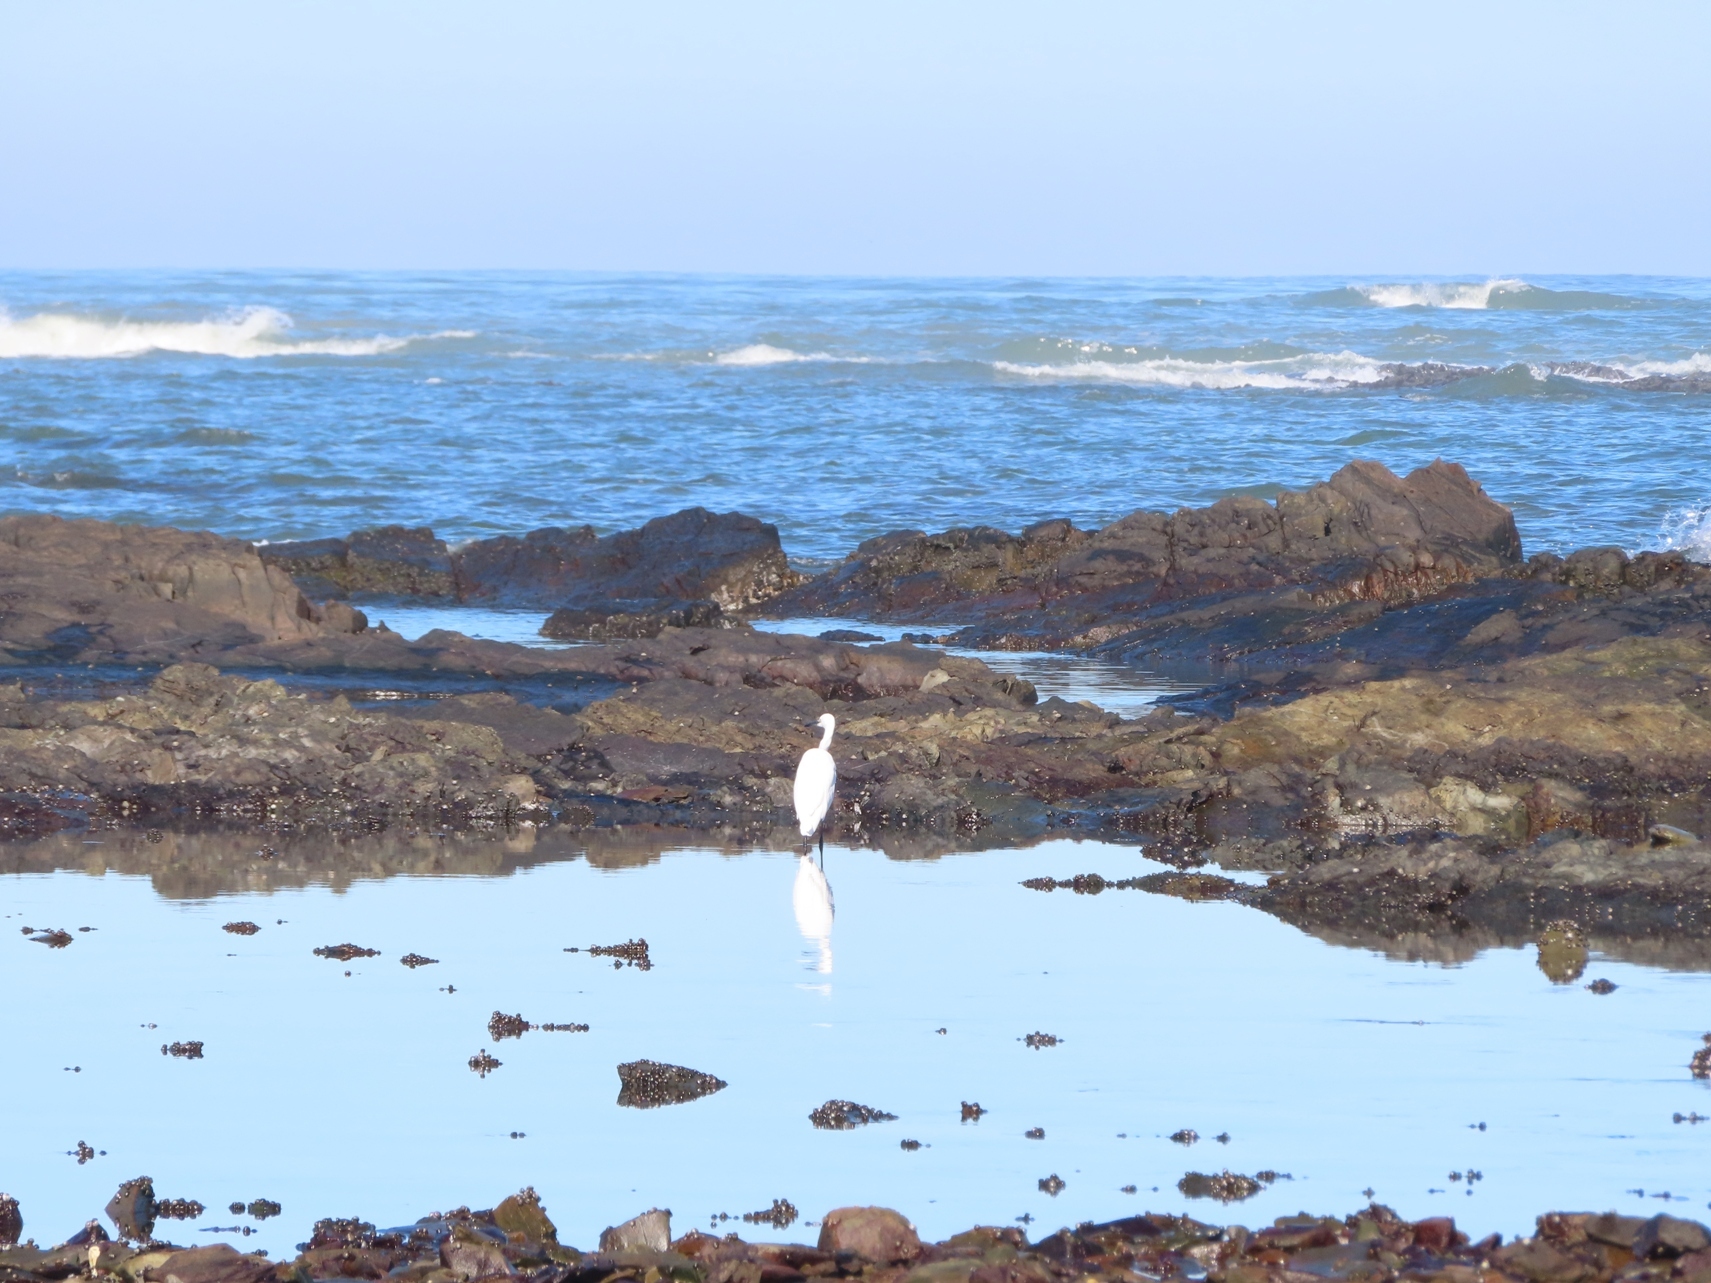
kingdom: Animalia
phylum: Chordata
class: Aves
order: Pelecaniformes
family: Ardeidae
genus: Egretta
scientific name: Egretta garzetta
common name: Little egret
